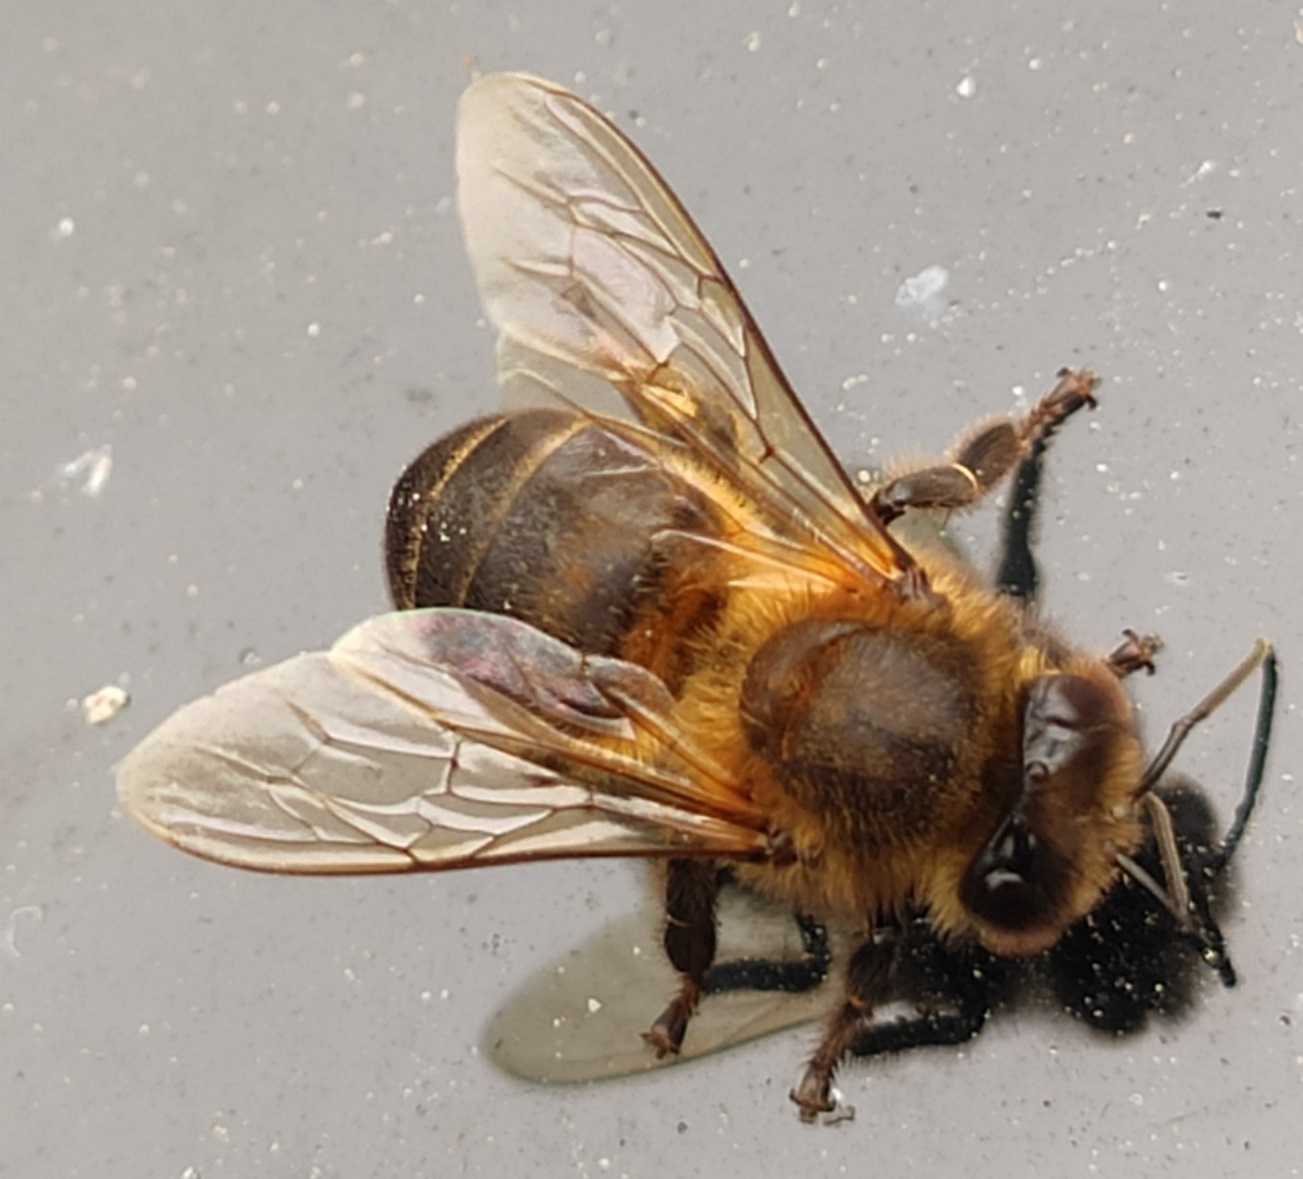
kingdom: Animalia
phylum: Arthropoda
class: Insecta
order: Hymenoptera
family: Apidae
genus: Apis
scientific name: Apis mellifera
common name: Honey bee
